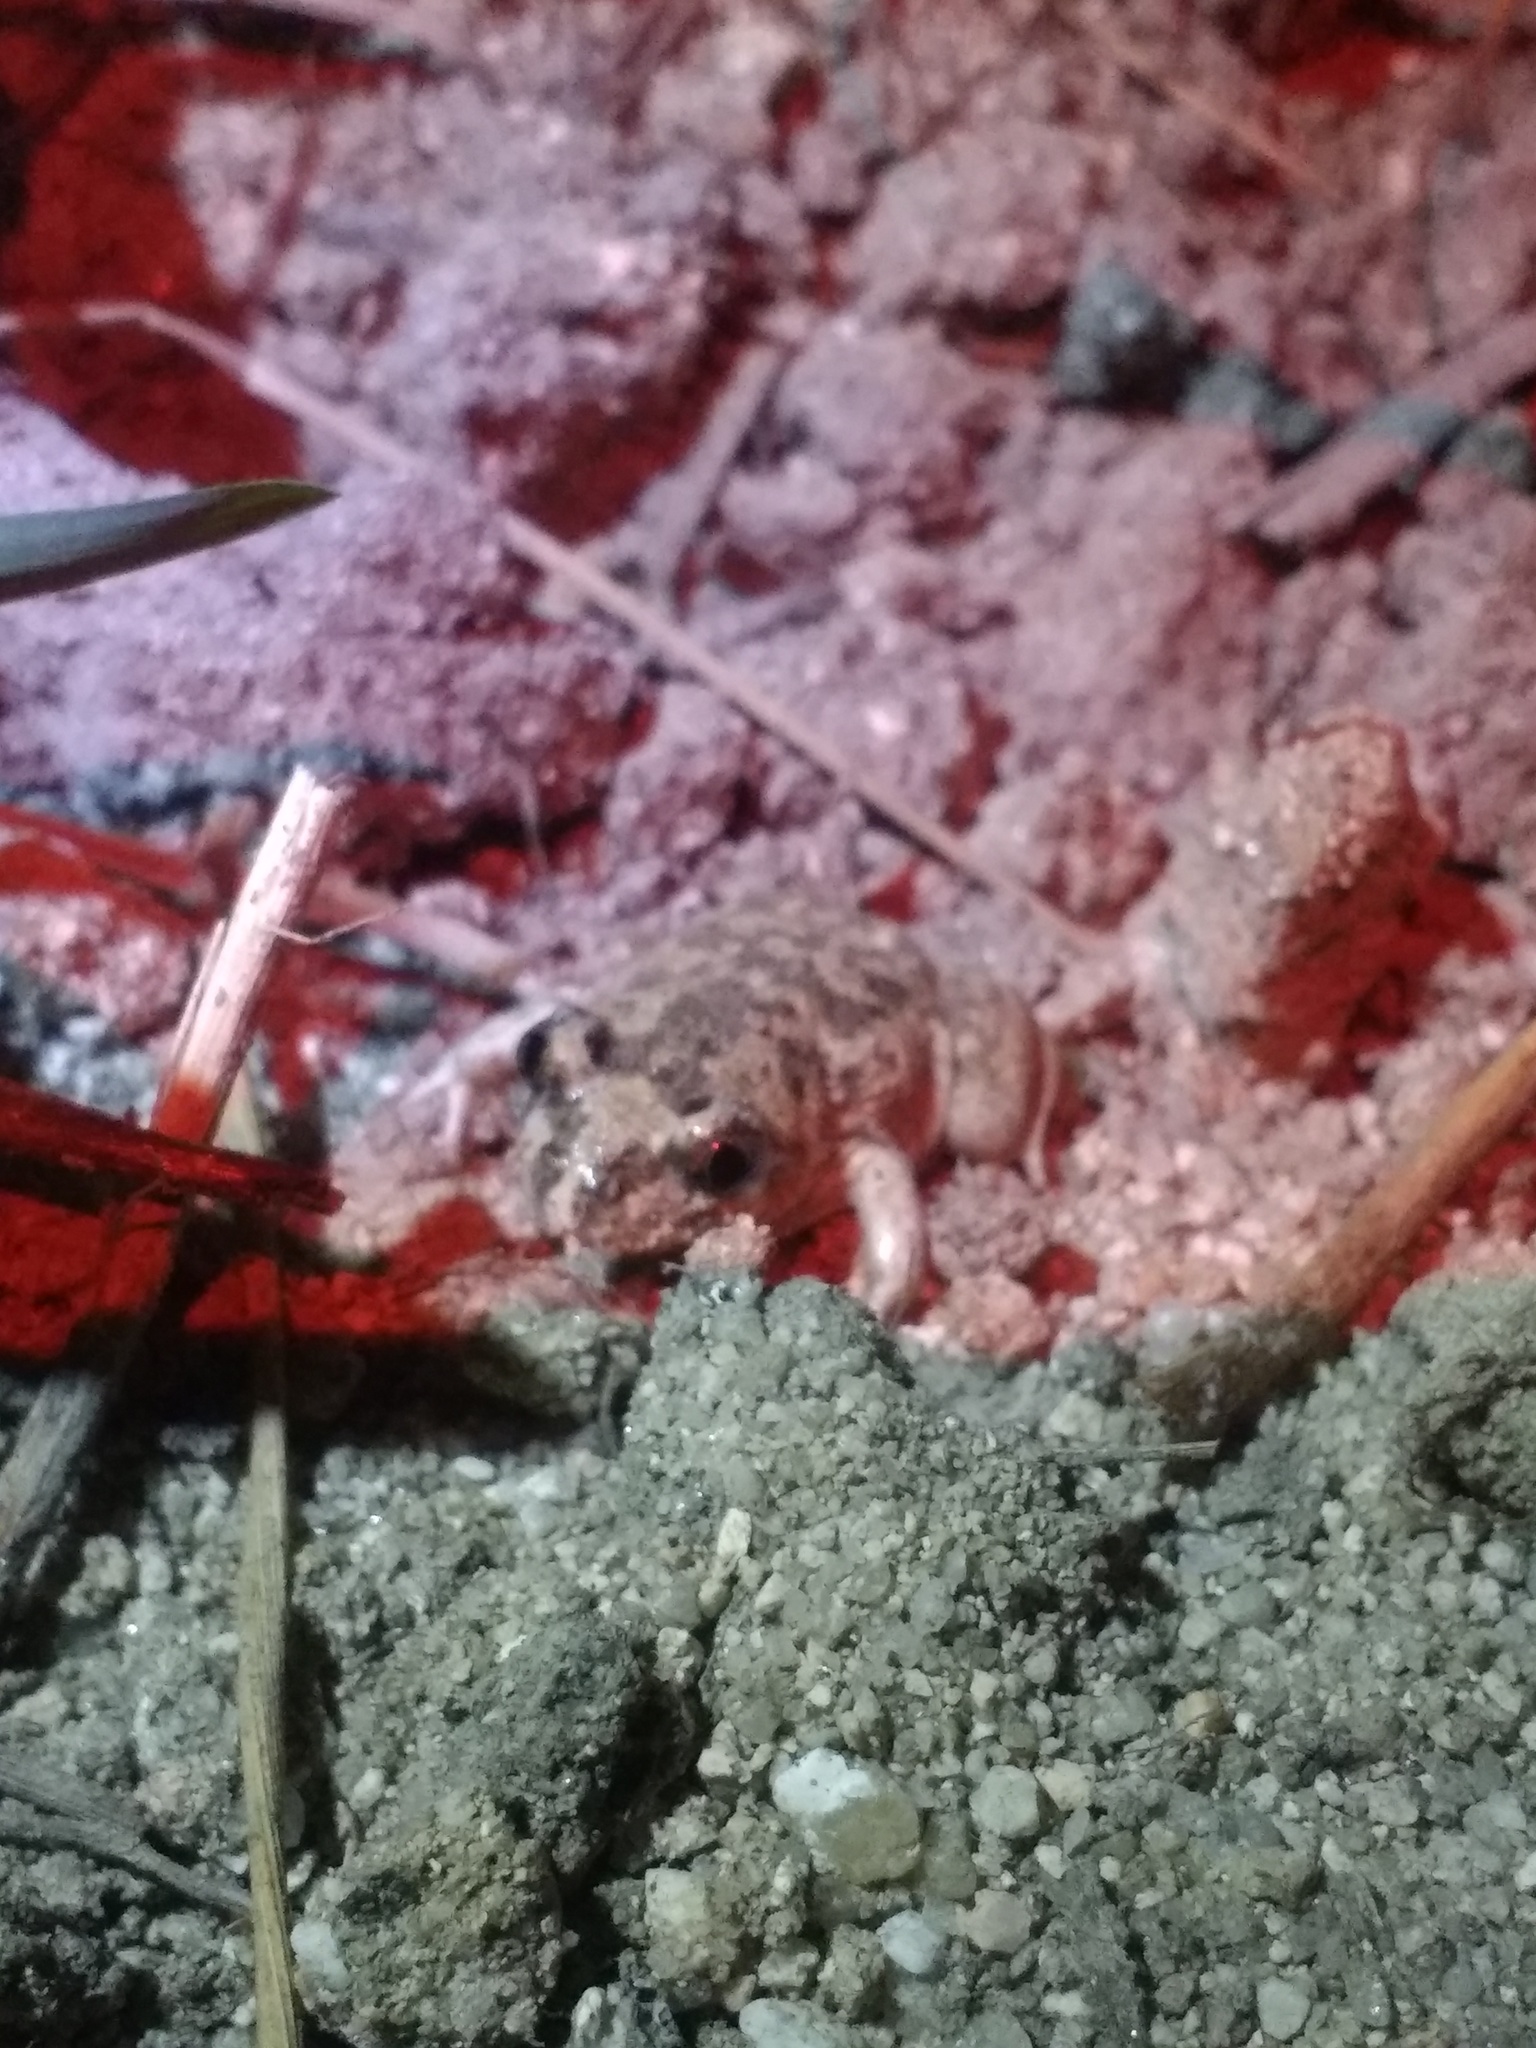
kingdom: Animalia
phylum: Chordata
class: Amphibia
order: Anura
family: Pelobatidae
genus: Pelobates
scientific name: Pelobates cultripes
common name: Western spadefoot
